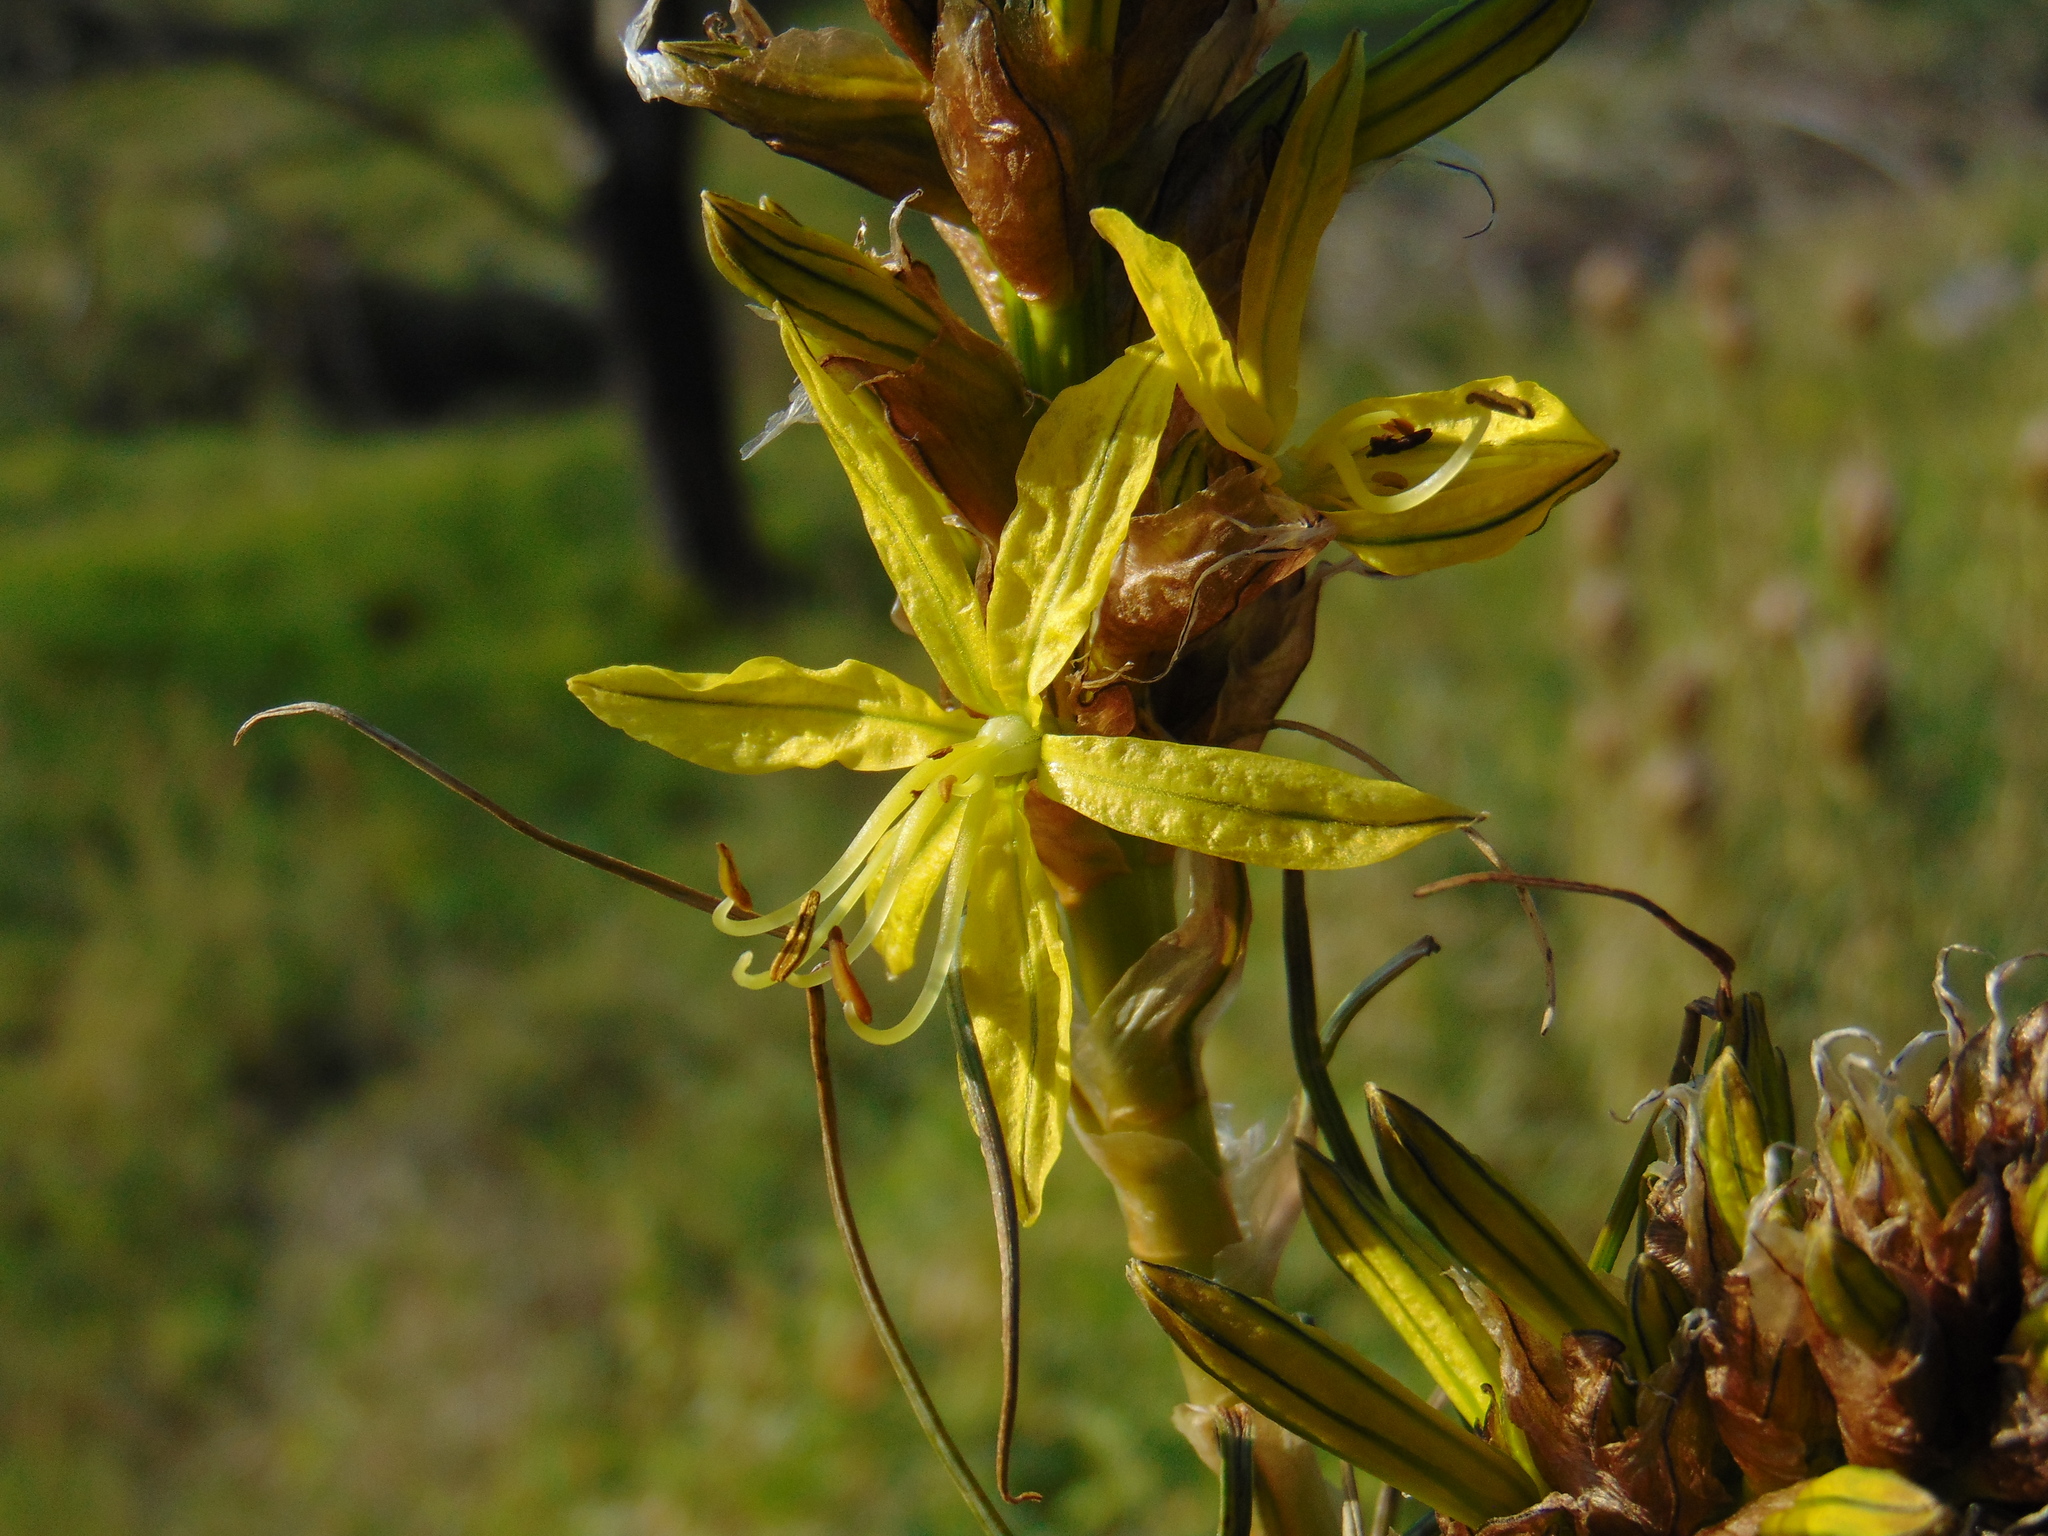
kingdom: Plantae
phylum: Tracheophyta
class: Liliopsida
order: Asparagales
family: Asphodelaceae
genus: Asphodeline
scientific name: Asphodeline lutea
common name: Yellow asphodel
